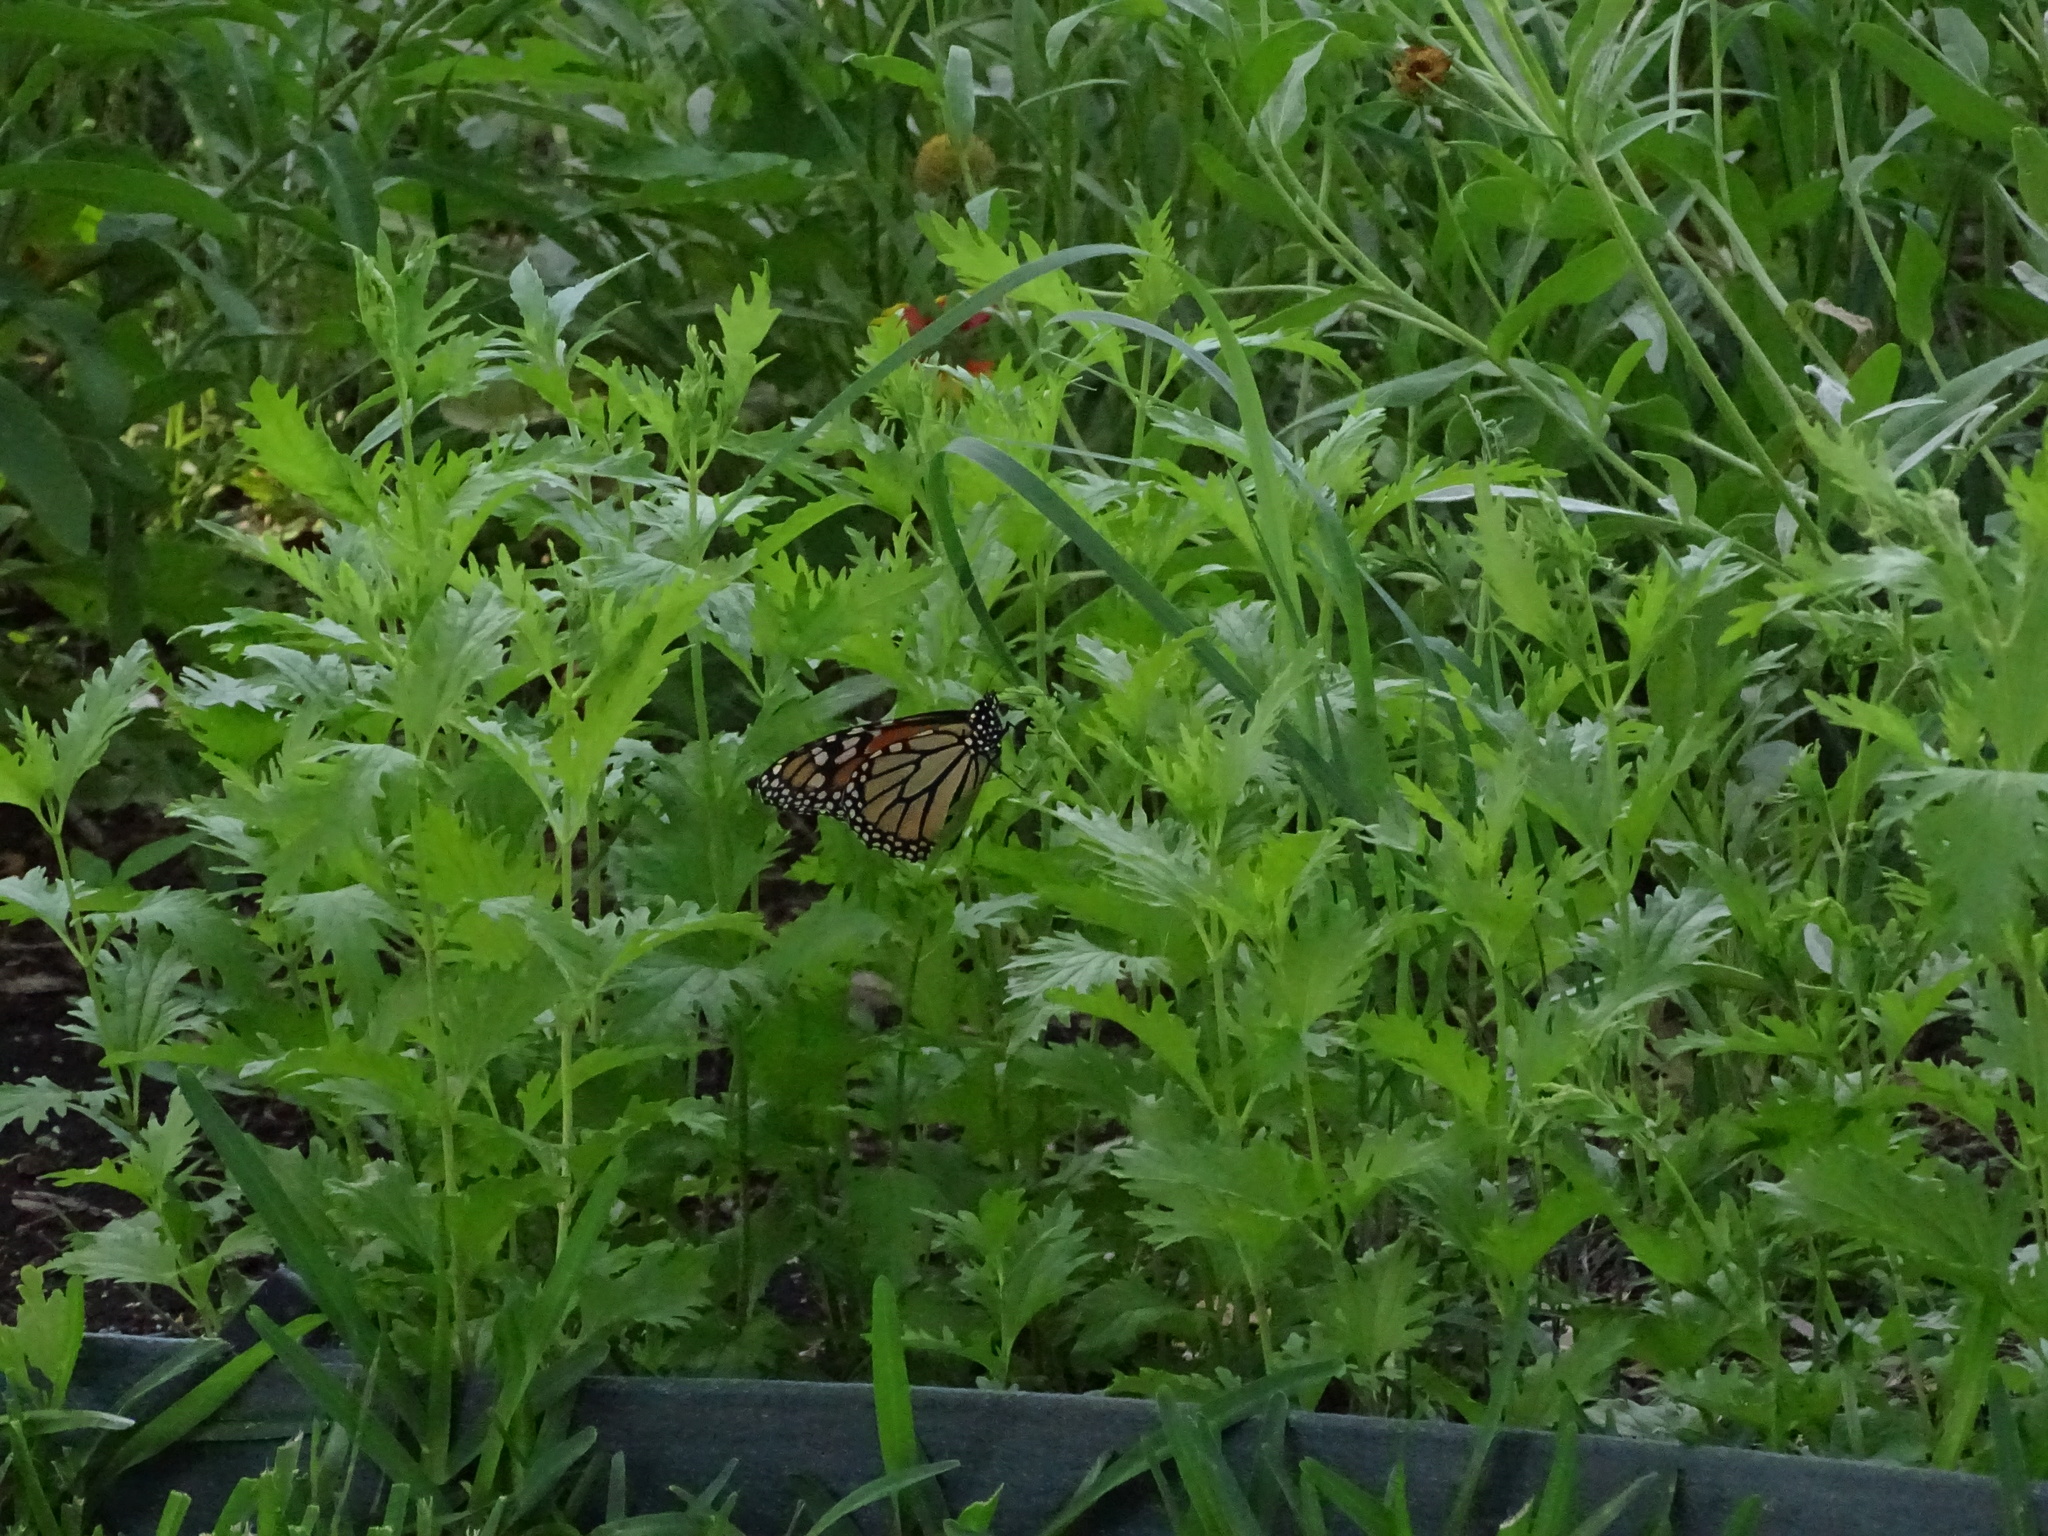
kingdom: Animalia
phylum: Arthropoda
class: Insecta
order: Lepidoptera
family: Nymphalidae
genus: Danaus
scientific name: Danaus plexippus
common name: Monarch
